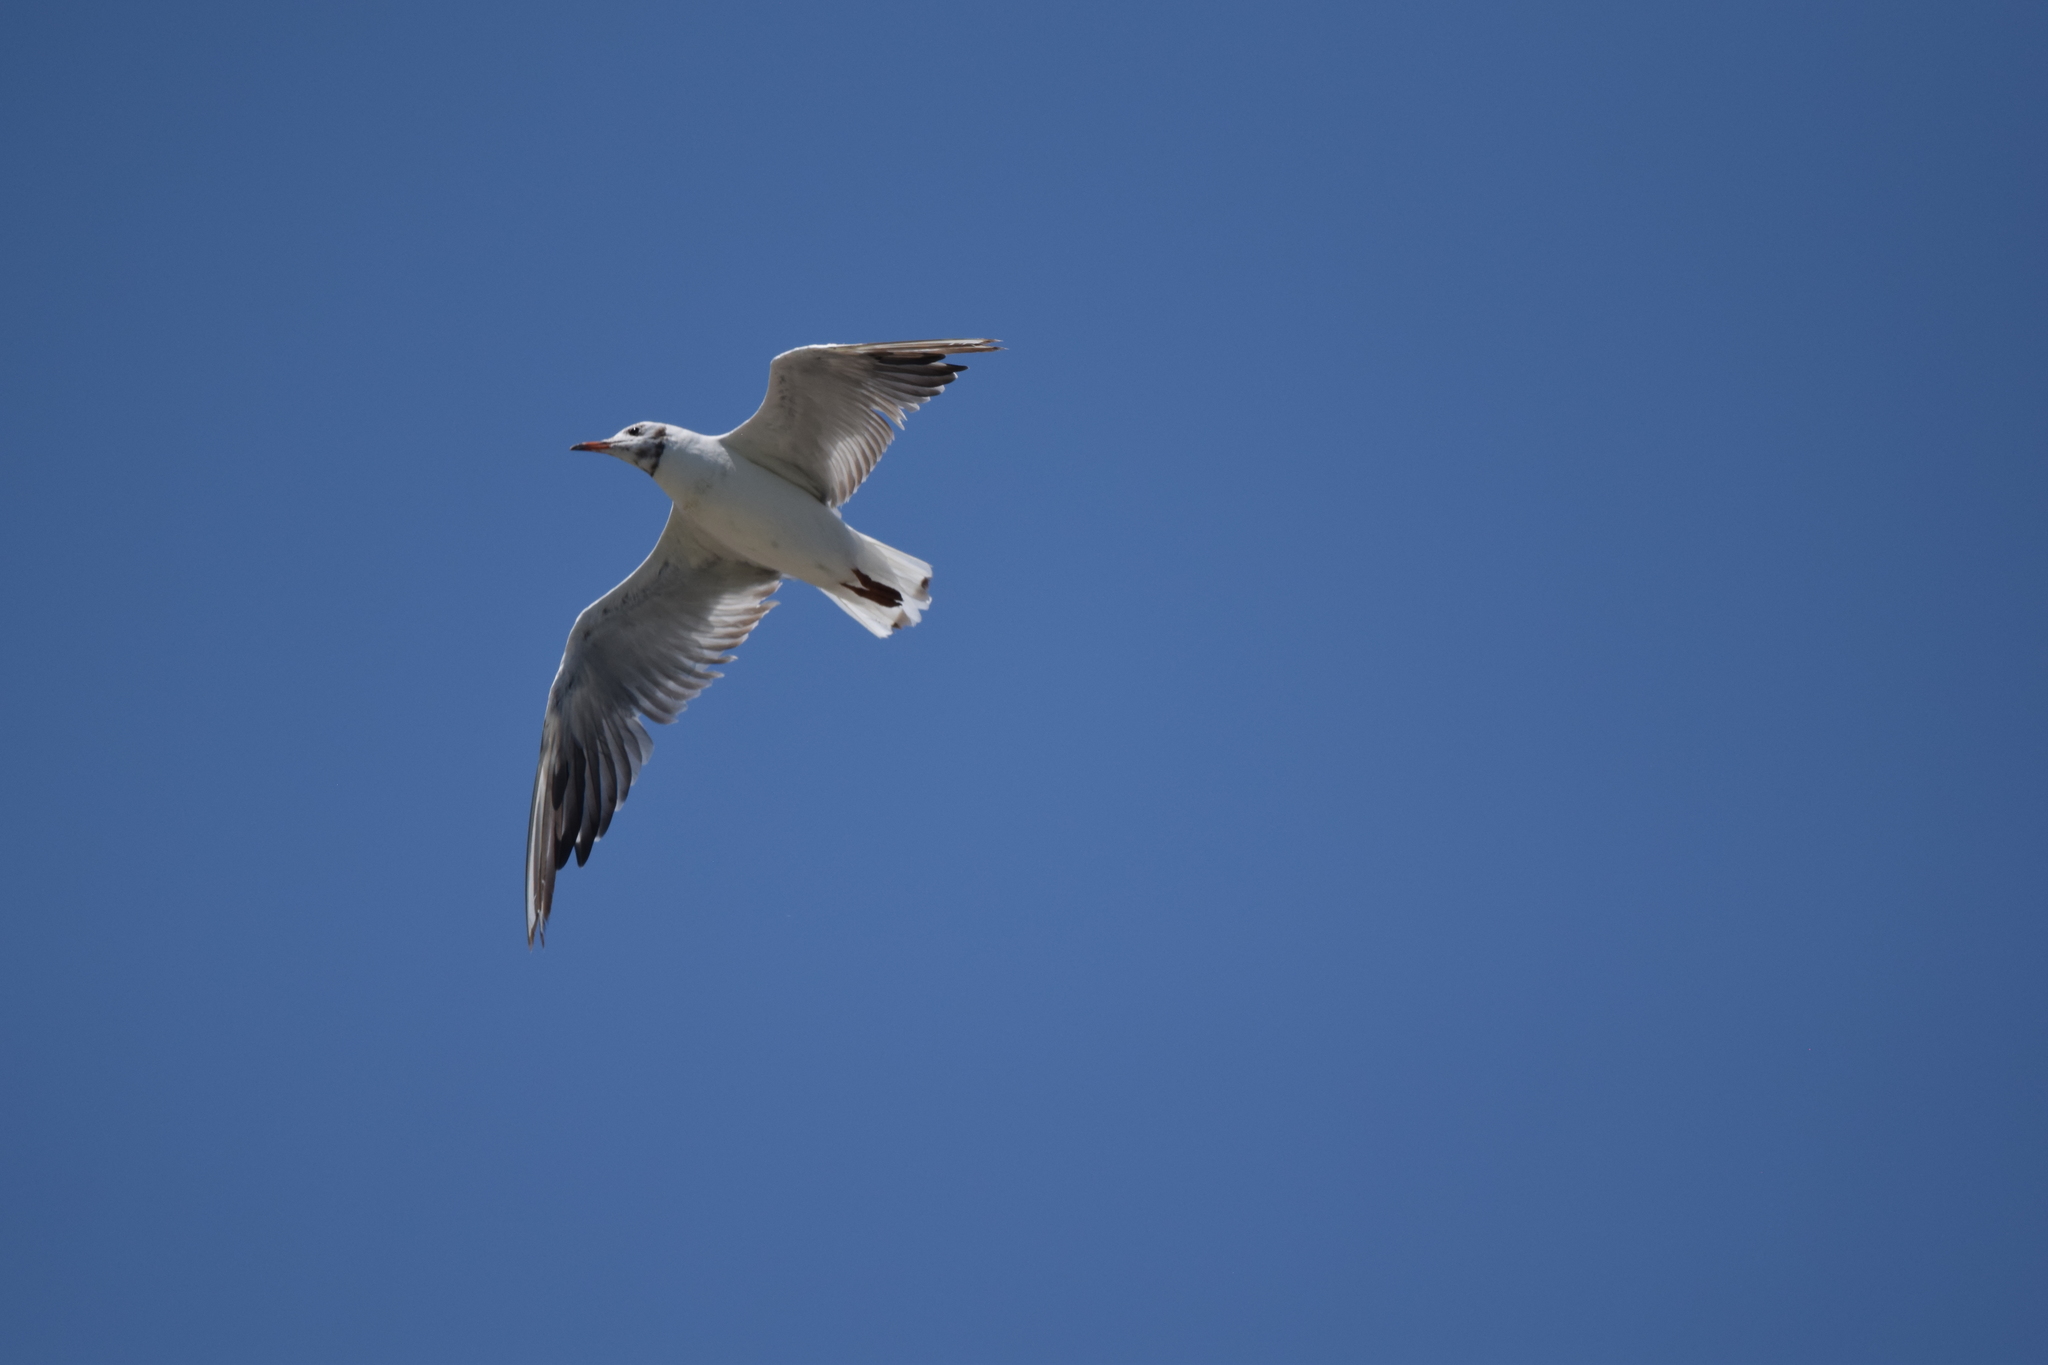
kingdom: Animalia
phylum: Chordata
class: Aves
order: Charadriiformes
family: Laridae
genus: Chroicocephalus
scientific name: Chroicocephalus ridibundus
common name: Black-headed gull
